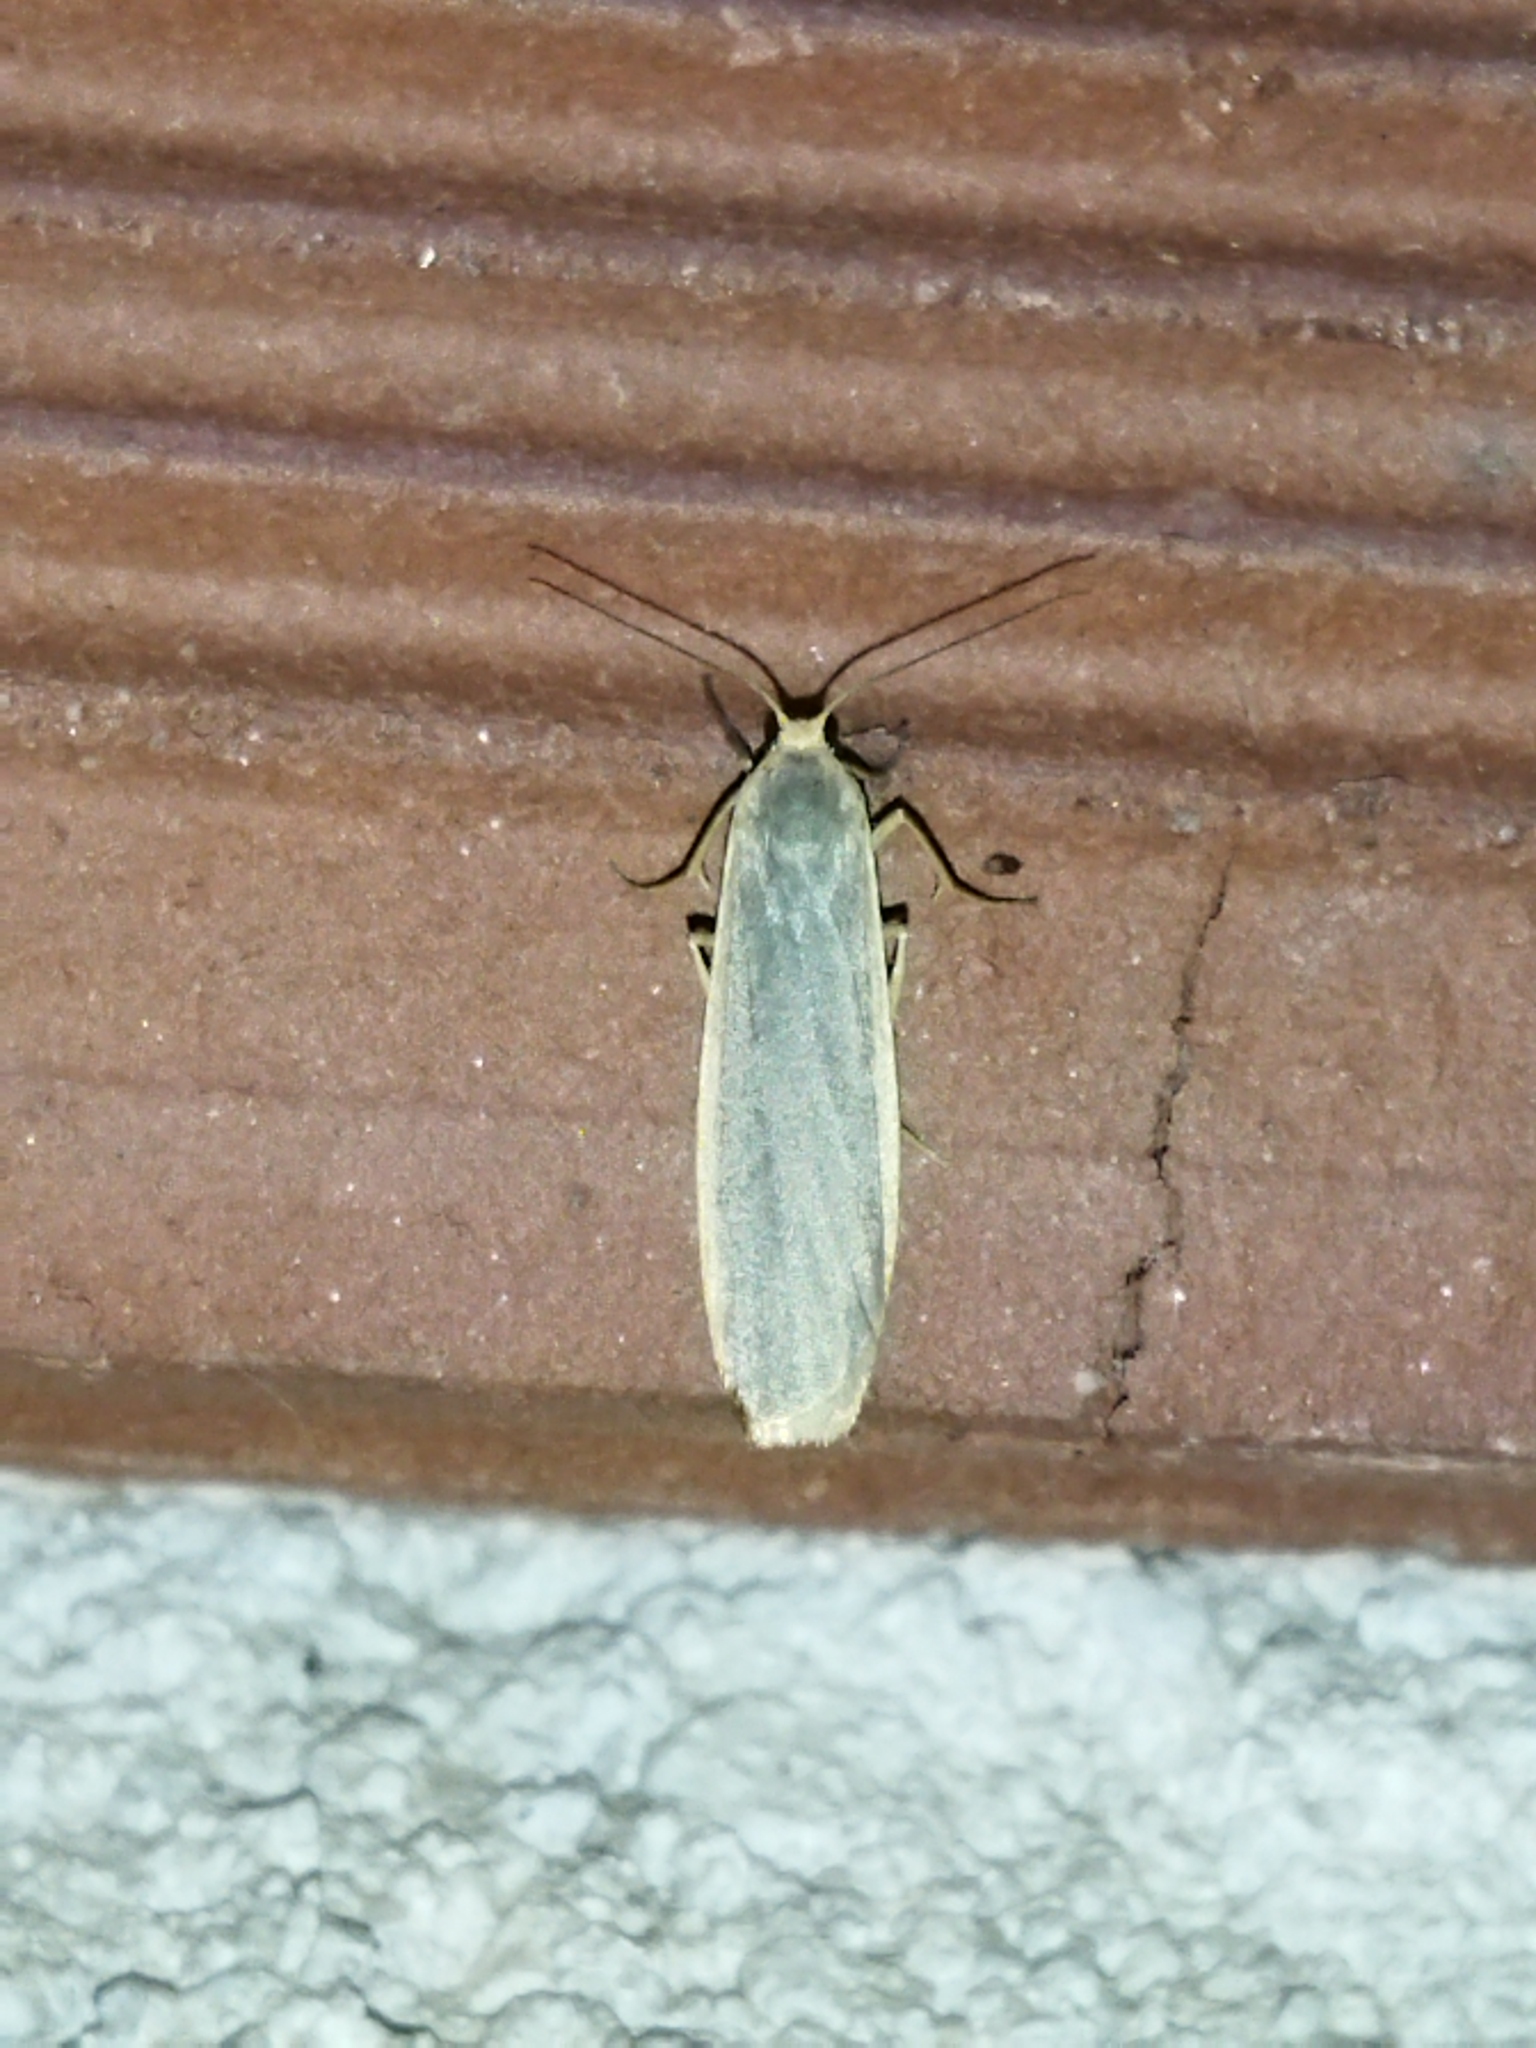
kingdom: Animalia
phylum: Arthropoda
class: Insecta
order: Lepidoptera
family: Erebidae
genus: Nyea
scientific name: Nyea lurideola
